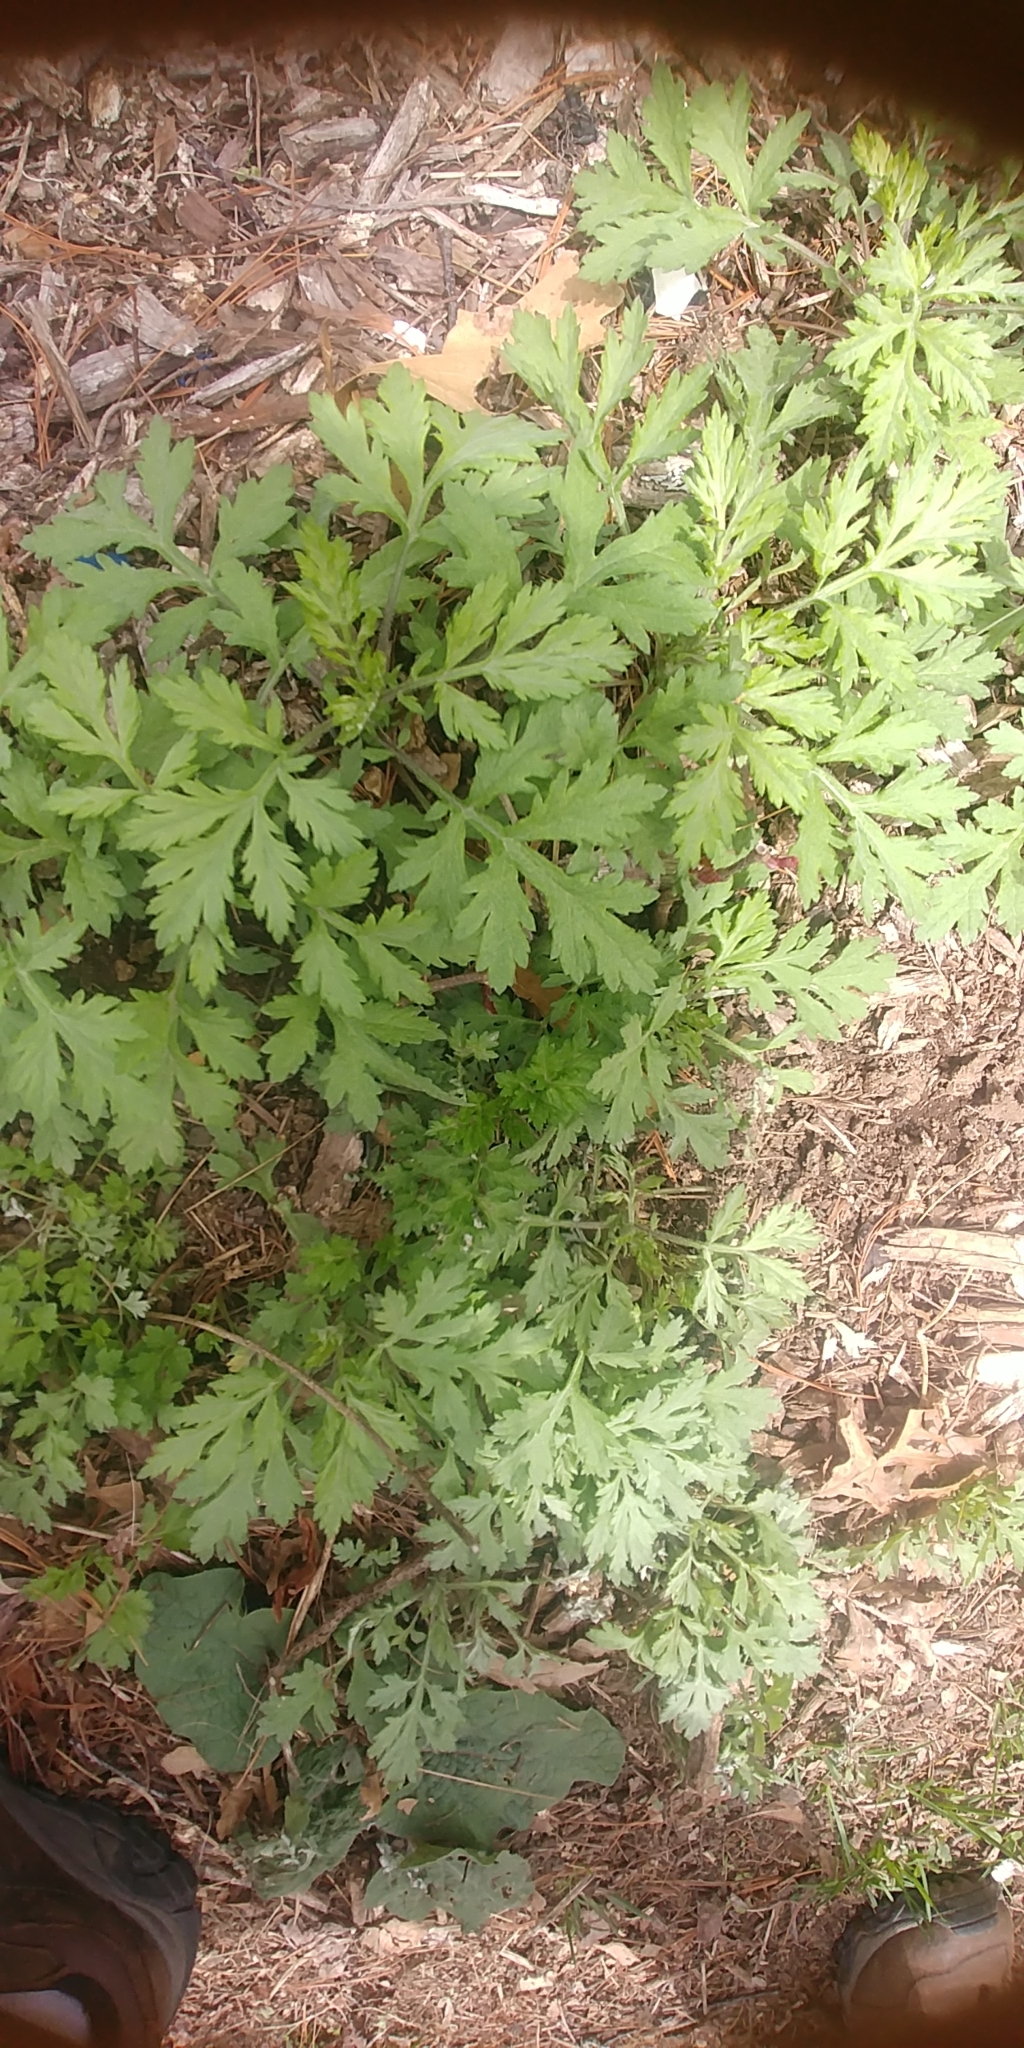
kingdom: Plantae
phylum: Tracheophyta
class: Magnoliopsida
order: Asterales
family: Asteraceae
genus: Artemisia
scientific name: Artemisia vulgaris
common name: Mugwort
